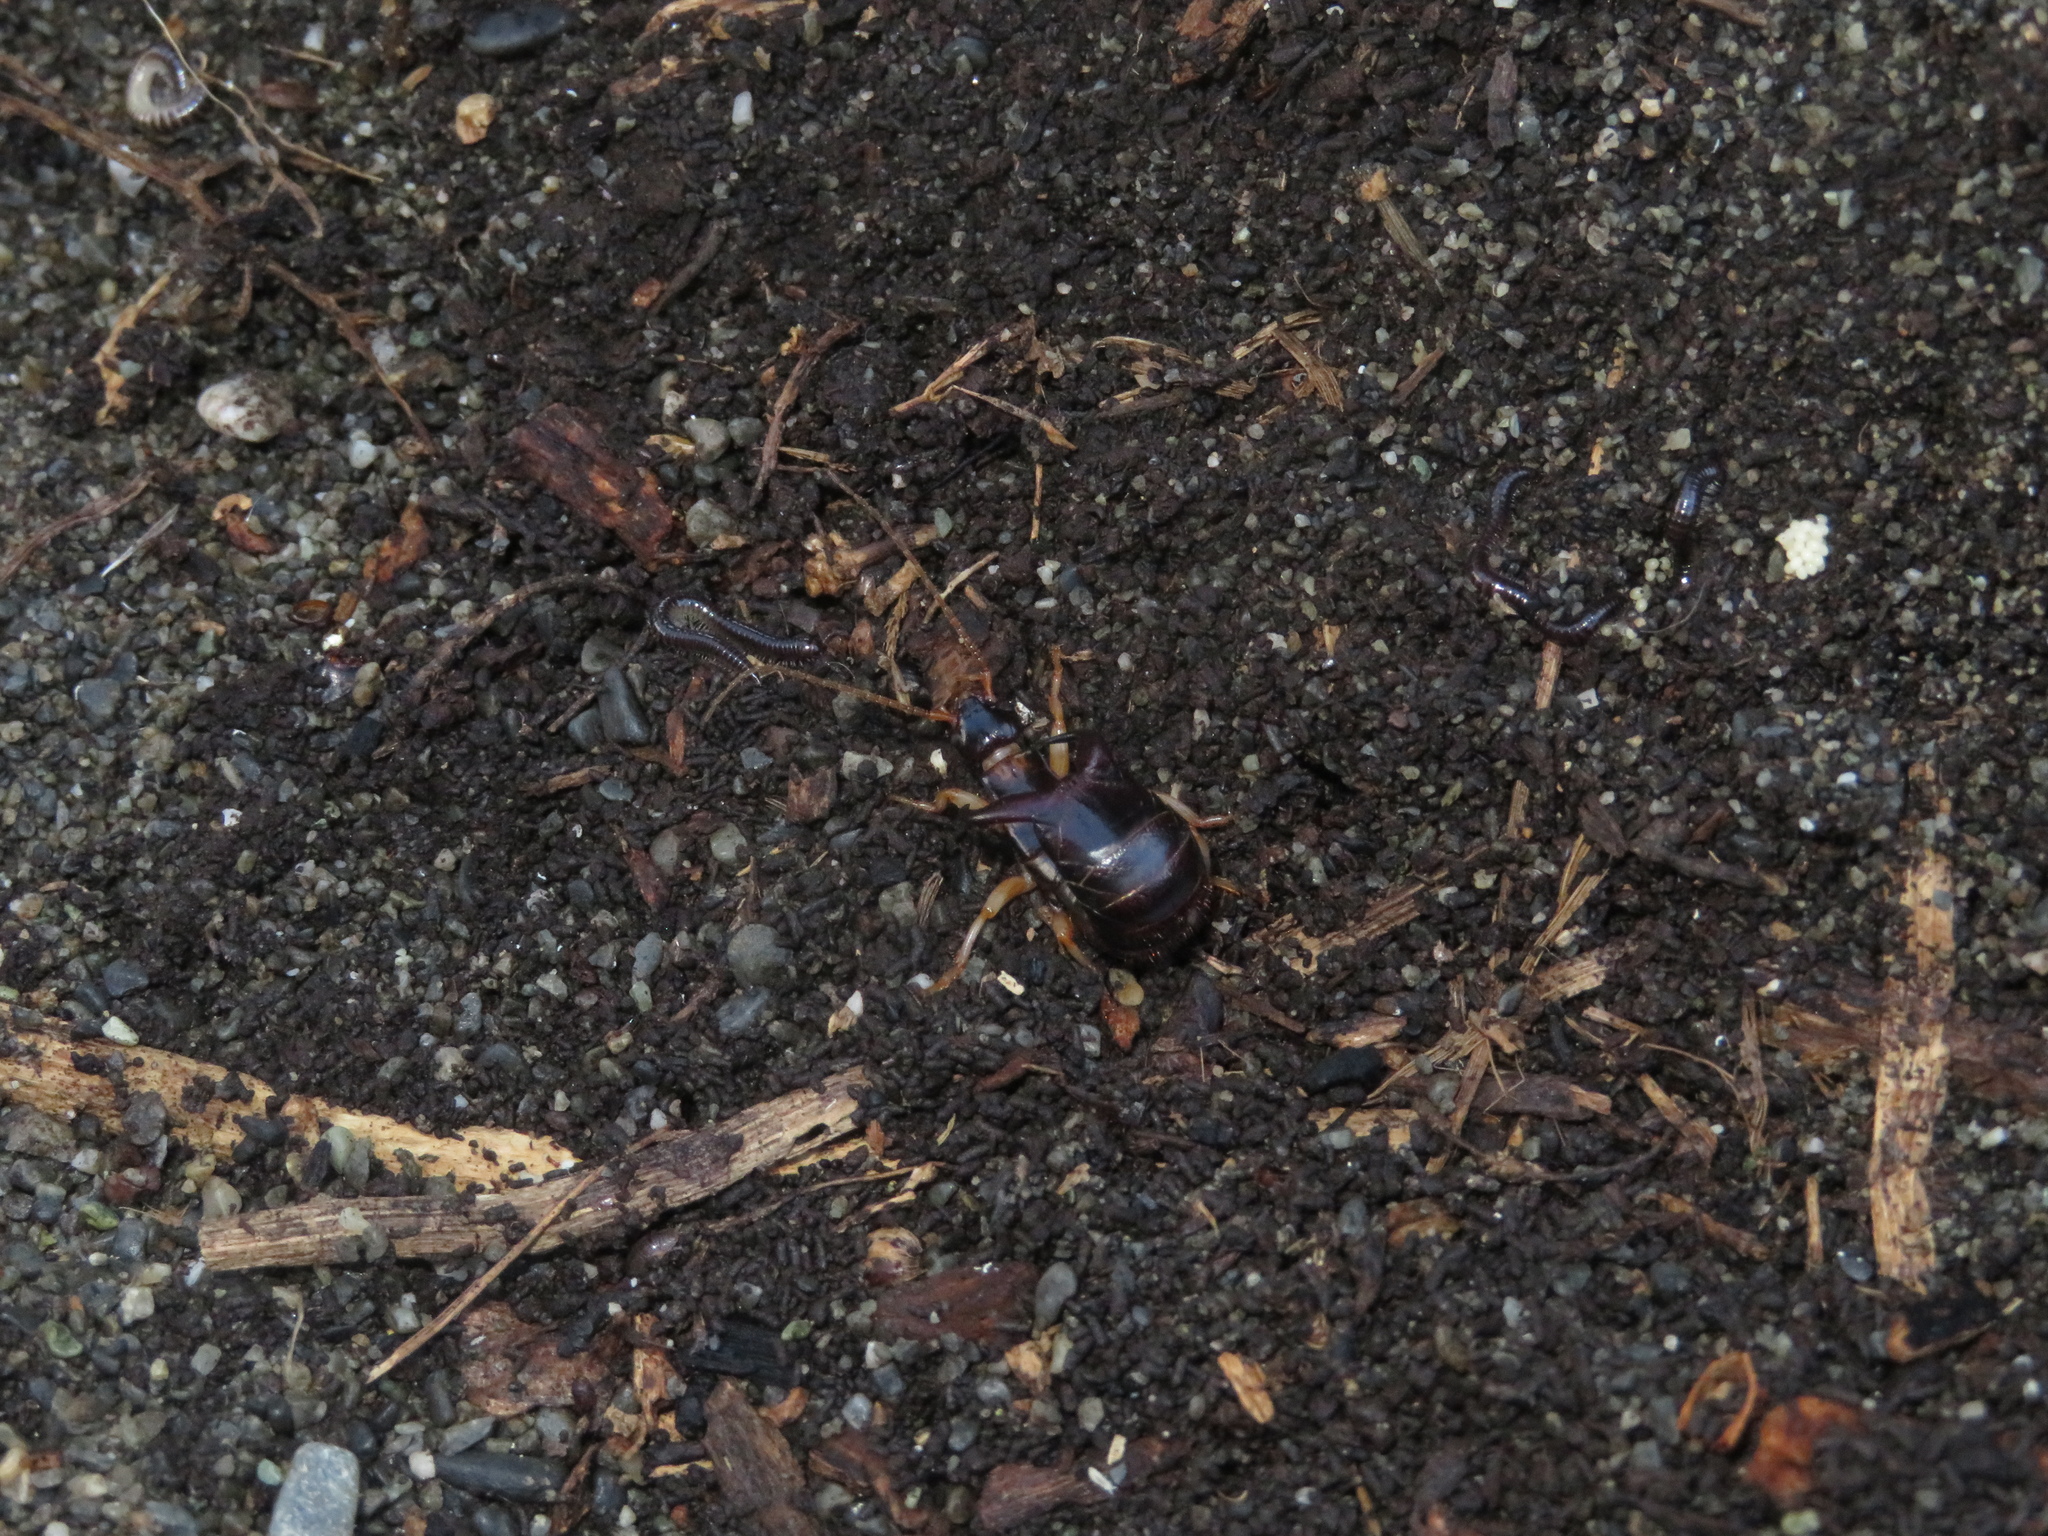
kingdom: Animalia
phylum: Arthropoda
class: Insecta
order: Dermaptera
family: Anisolabididae
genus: Anisolabis
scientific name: Anisolabis littorea
